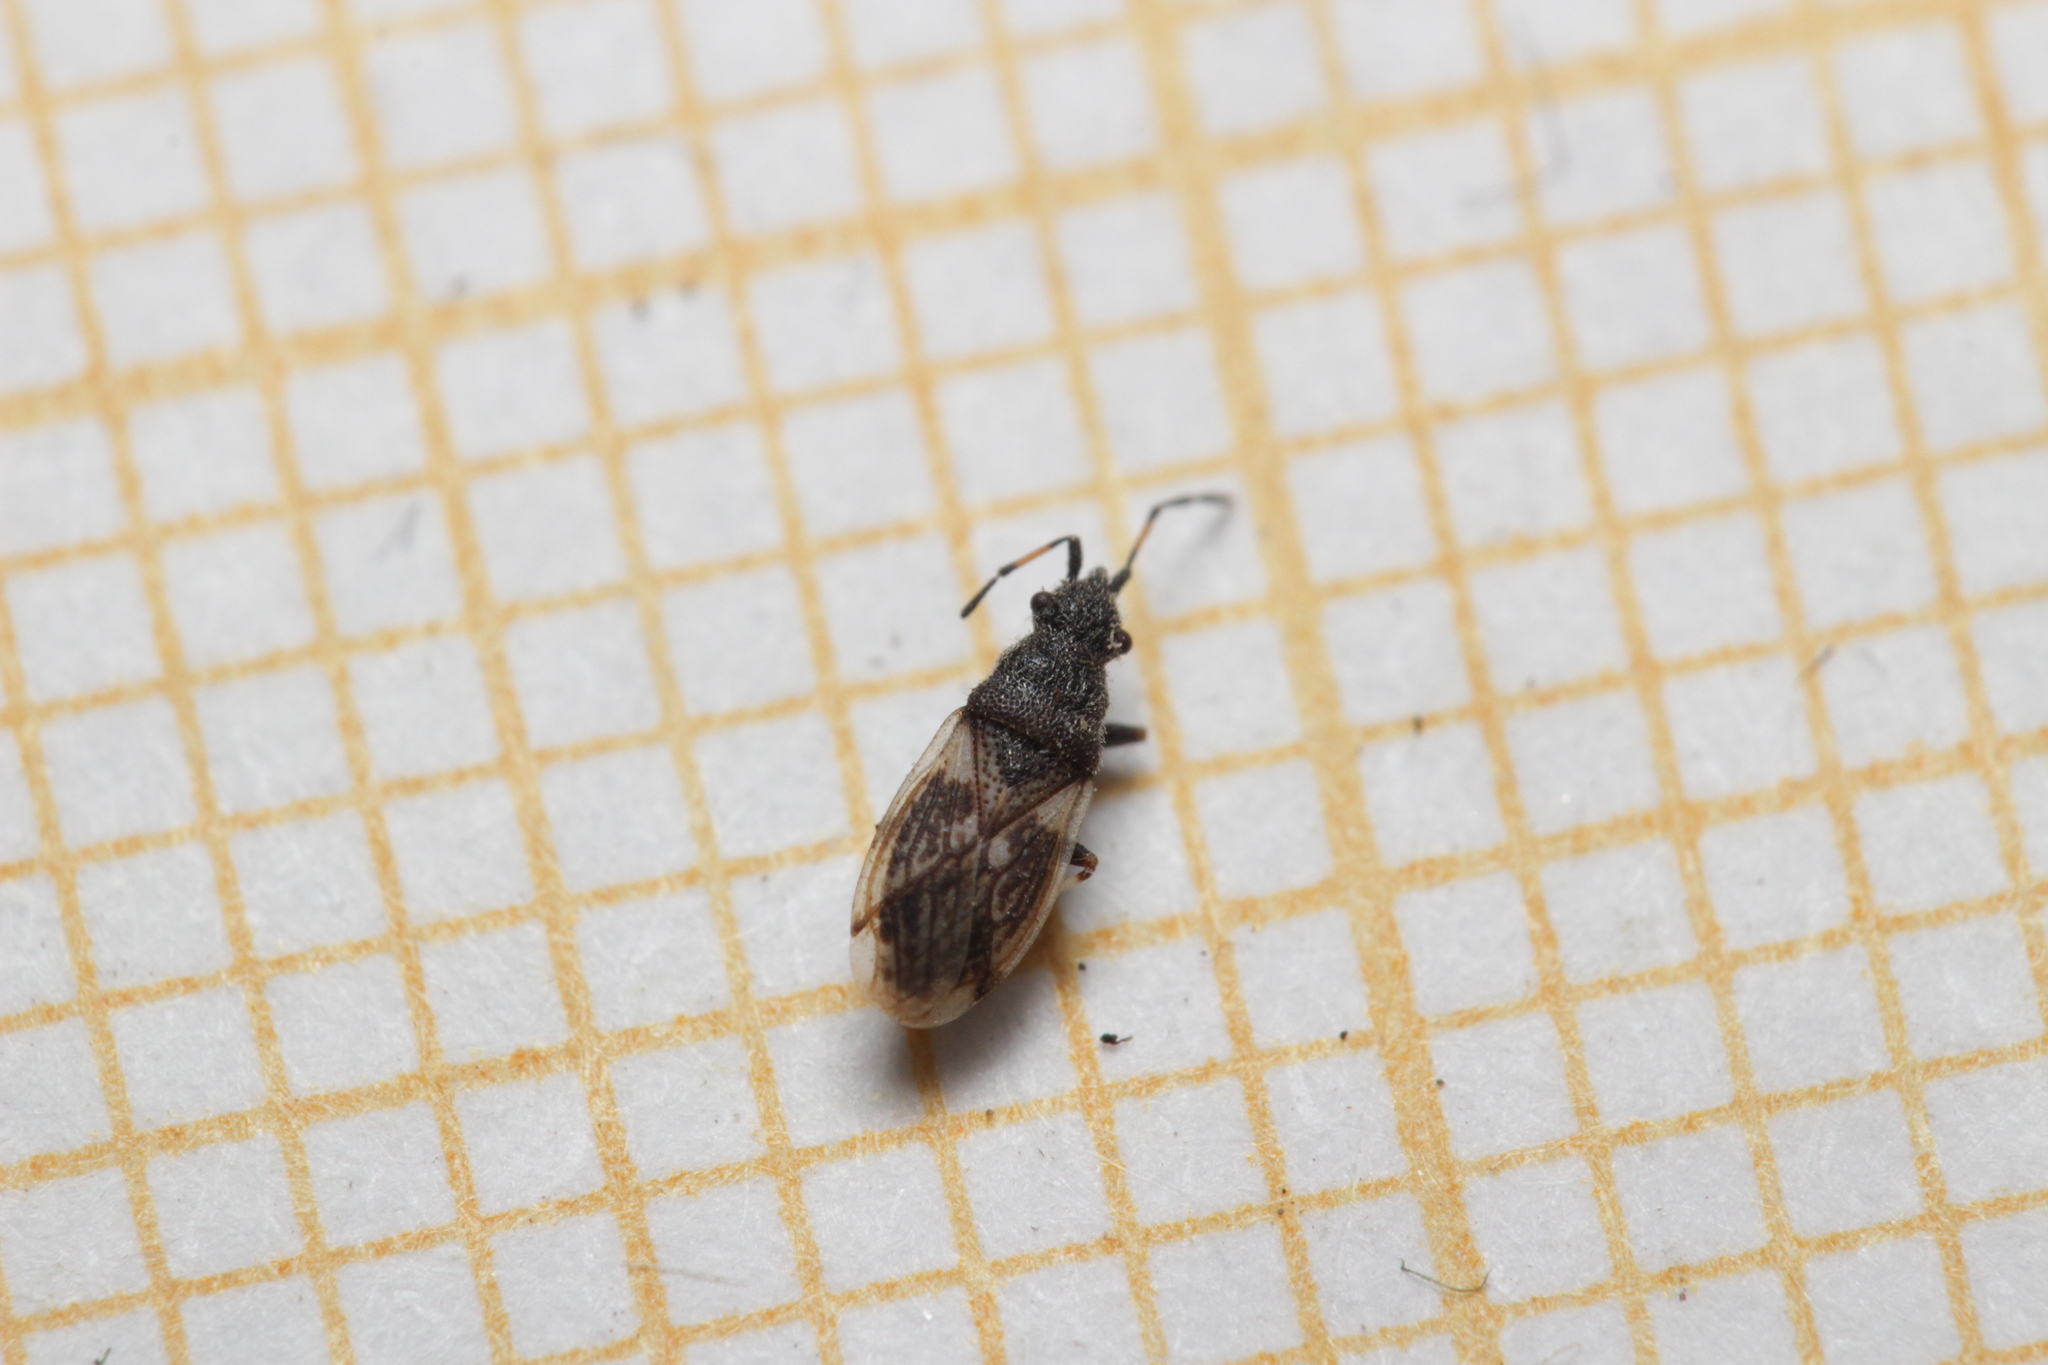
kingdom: Animalia
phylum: Arthropoda
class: Insecta
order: Hemiptera
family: Oxycarenidae
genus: Macroplax
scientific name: Macroplax preyssleri
